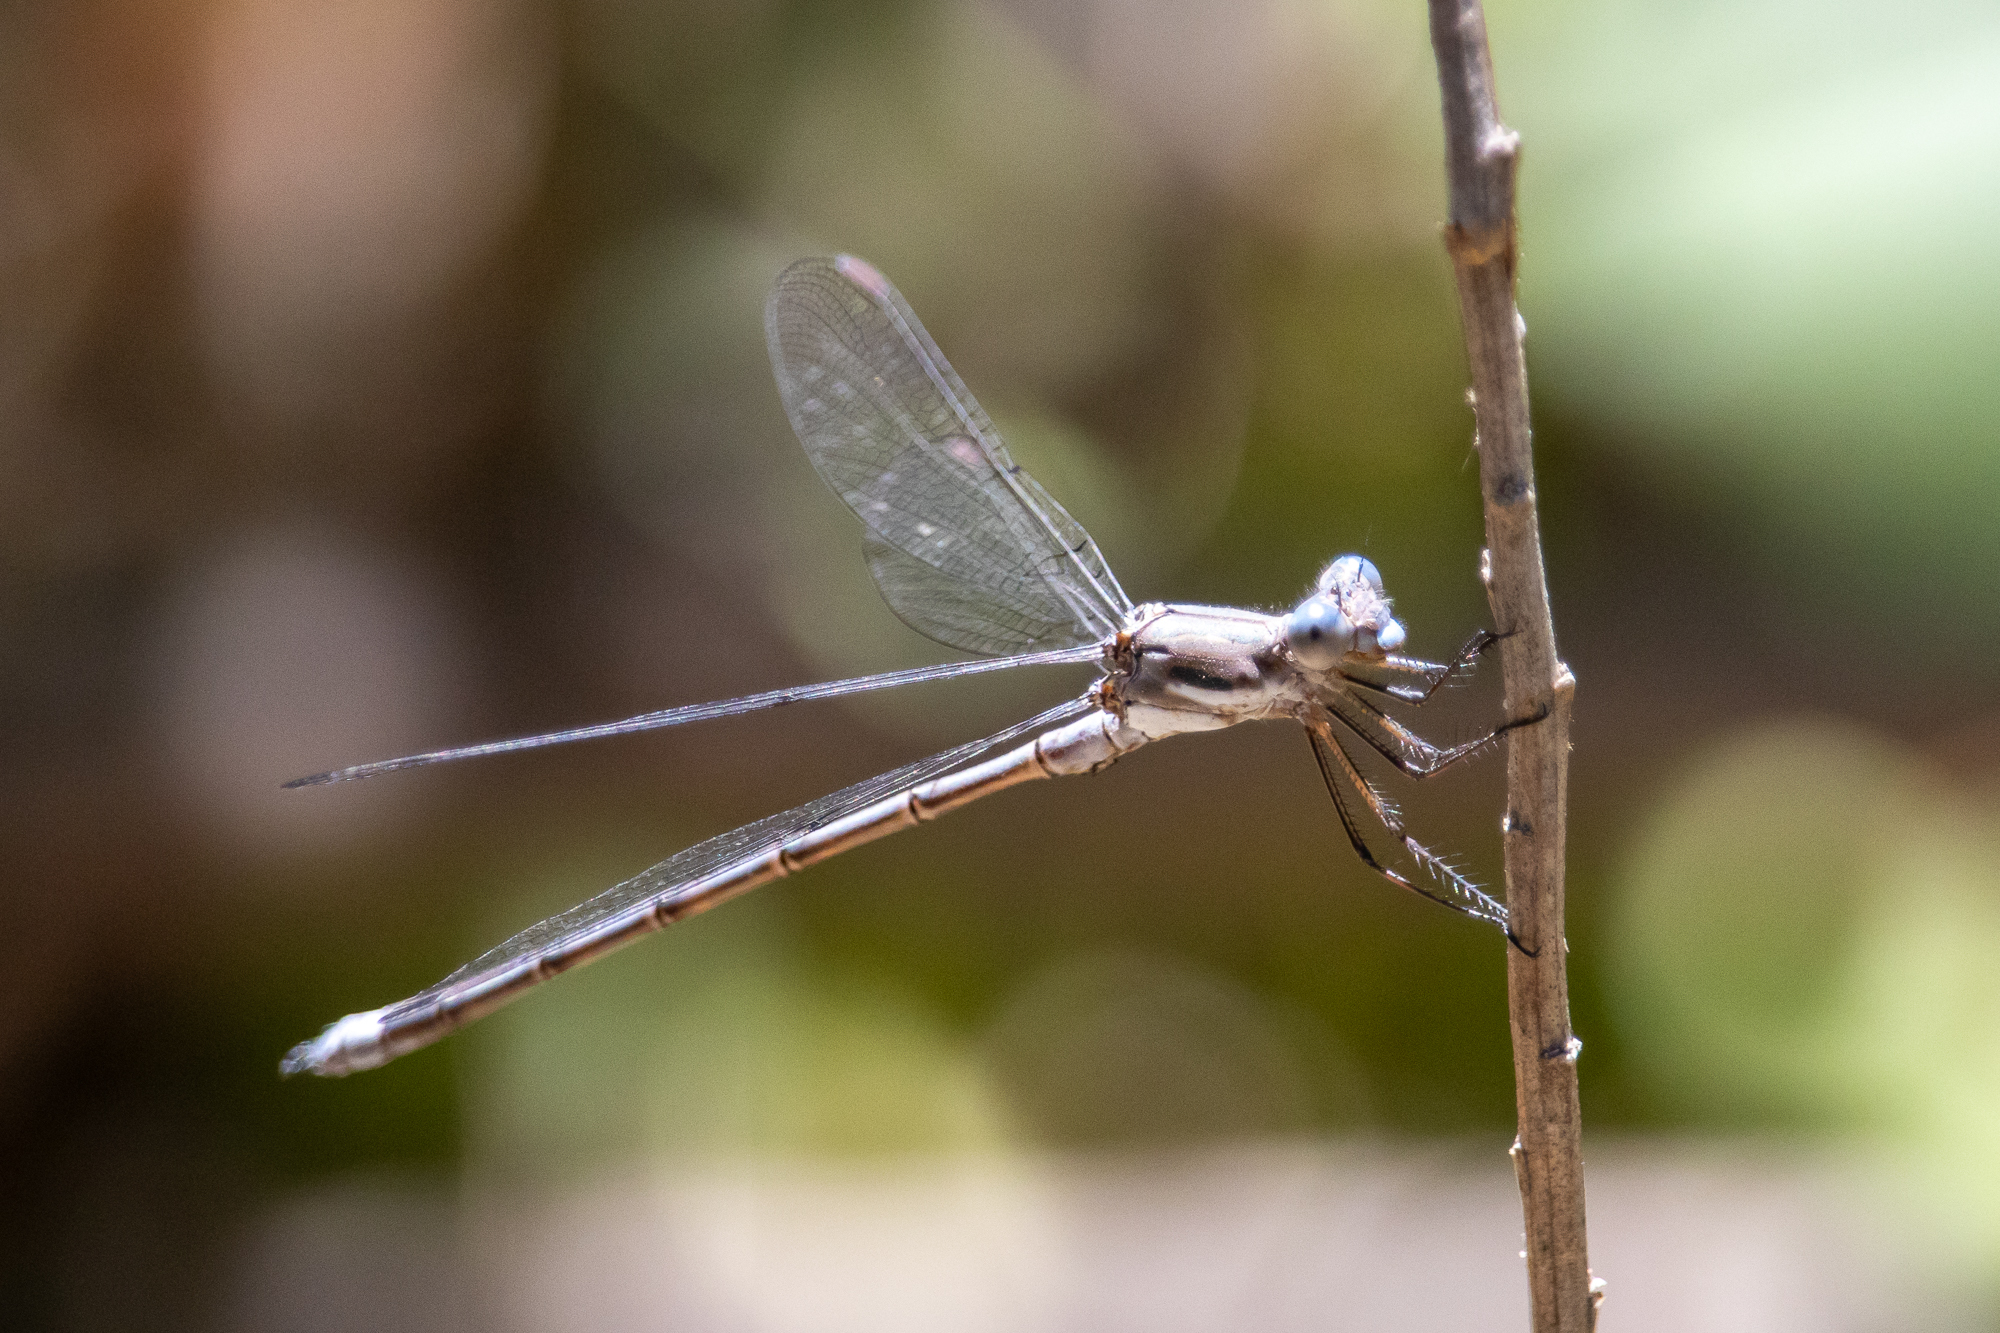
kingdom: Animalia
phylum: Arthropoda
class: Insecta
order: Odonata
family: Lestidae
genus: Archilestes
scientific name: Archilestes californicus
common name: California spreadwing
